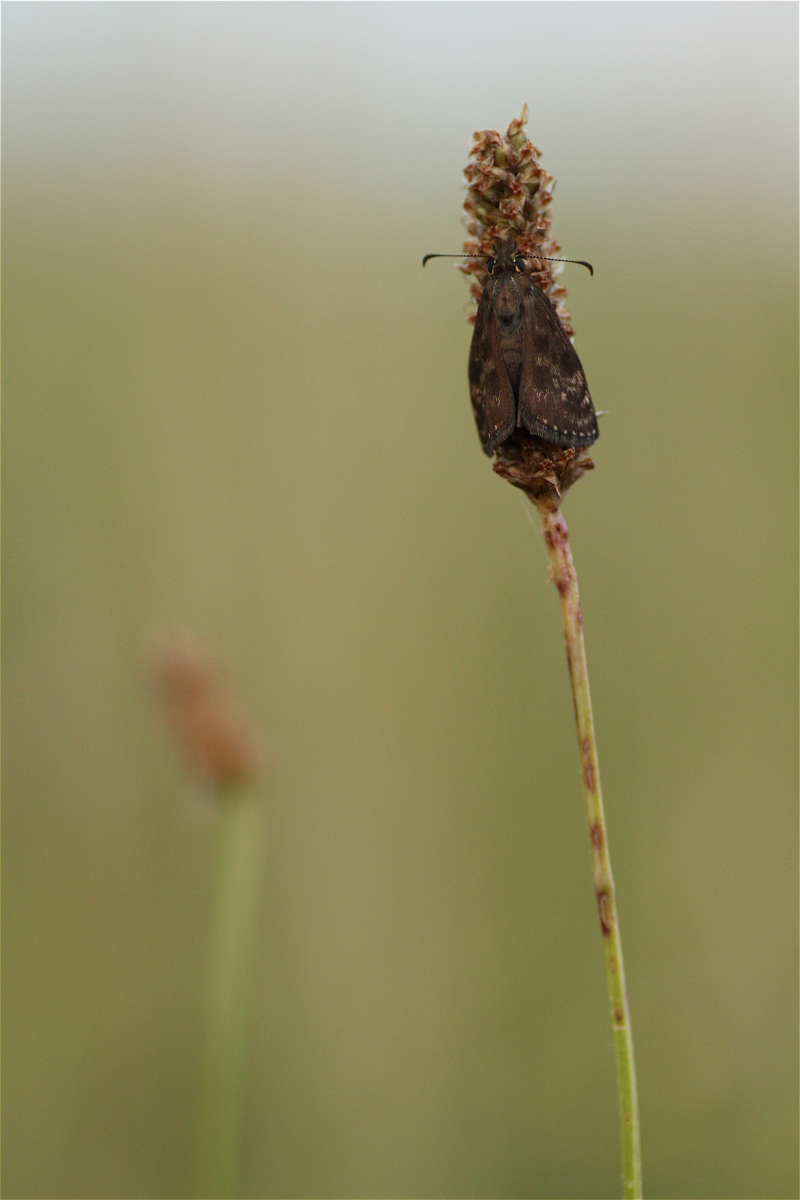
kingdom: Animalia
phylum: Arthropoda
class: Insecta
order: Lepidoptera
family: Hesperiidae
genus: Erynnis
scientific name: Erynnis tages
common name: Dingy skipper
